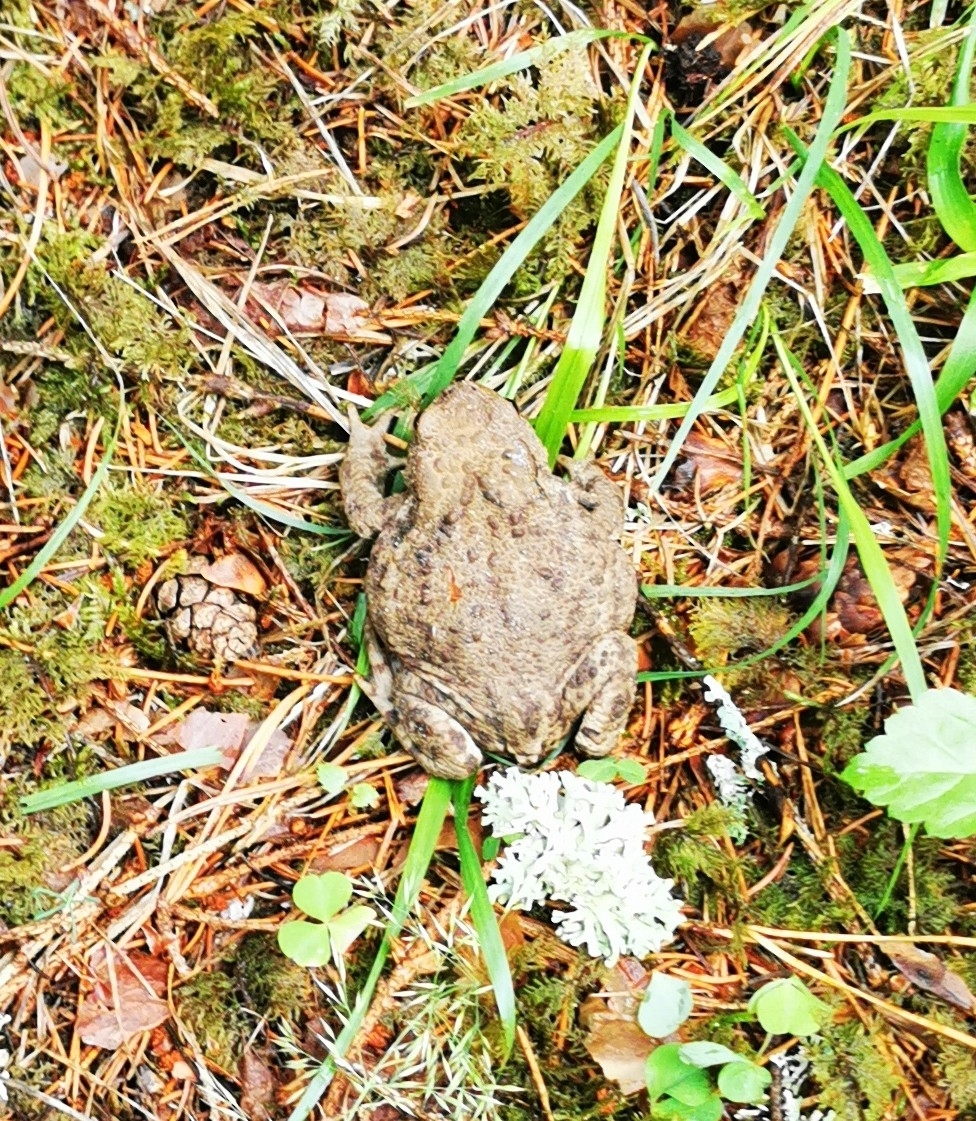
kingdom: Animalia
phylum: Chordata
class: Amphibia
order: Anura
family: Bufonidae
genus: Bufo
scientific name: Bufo bufo
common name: Common toad
